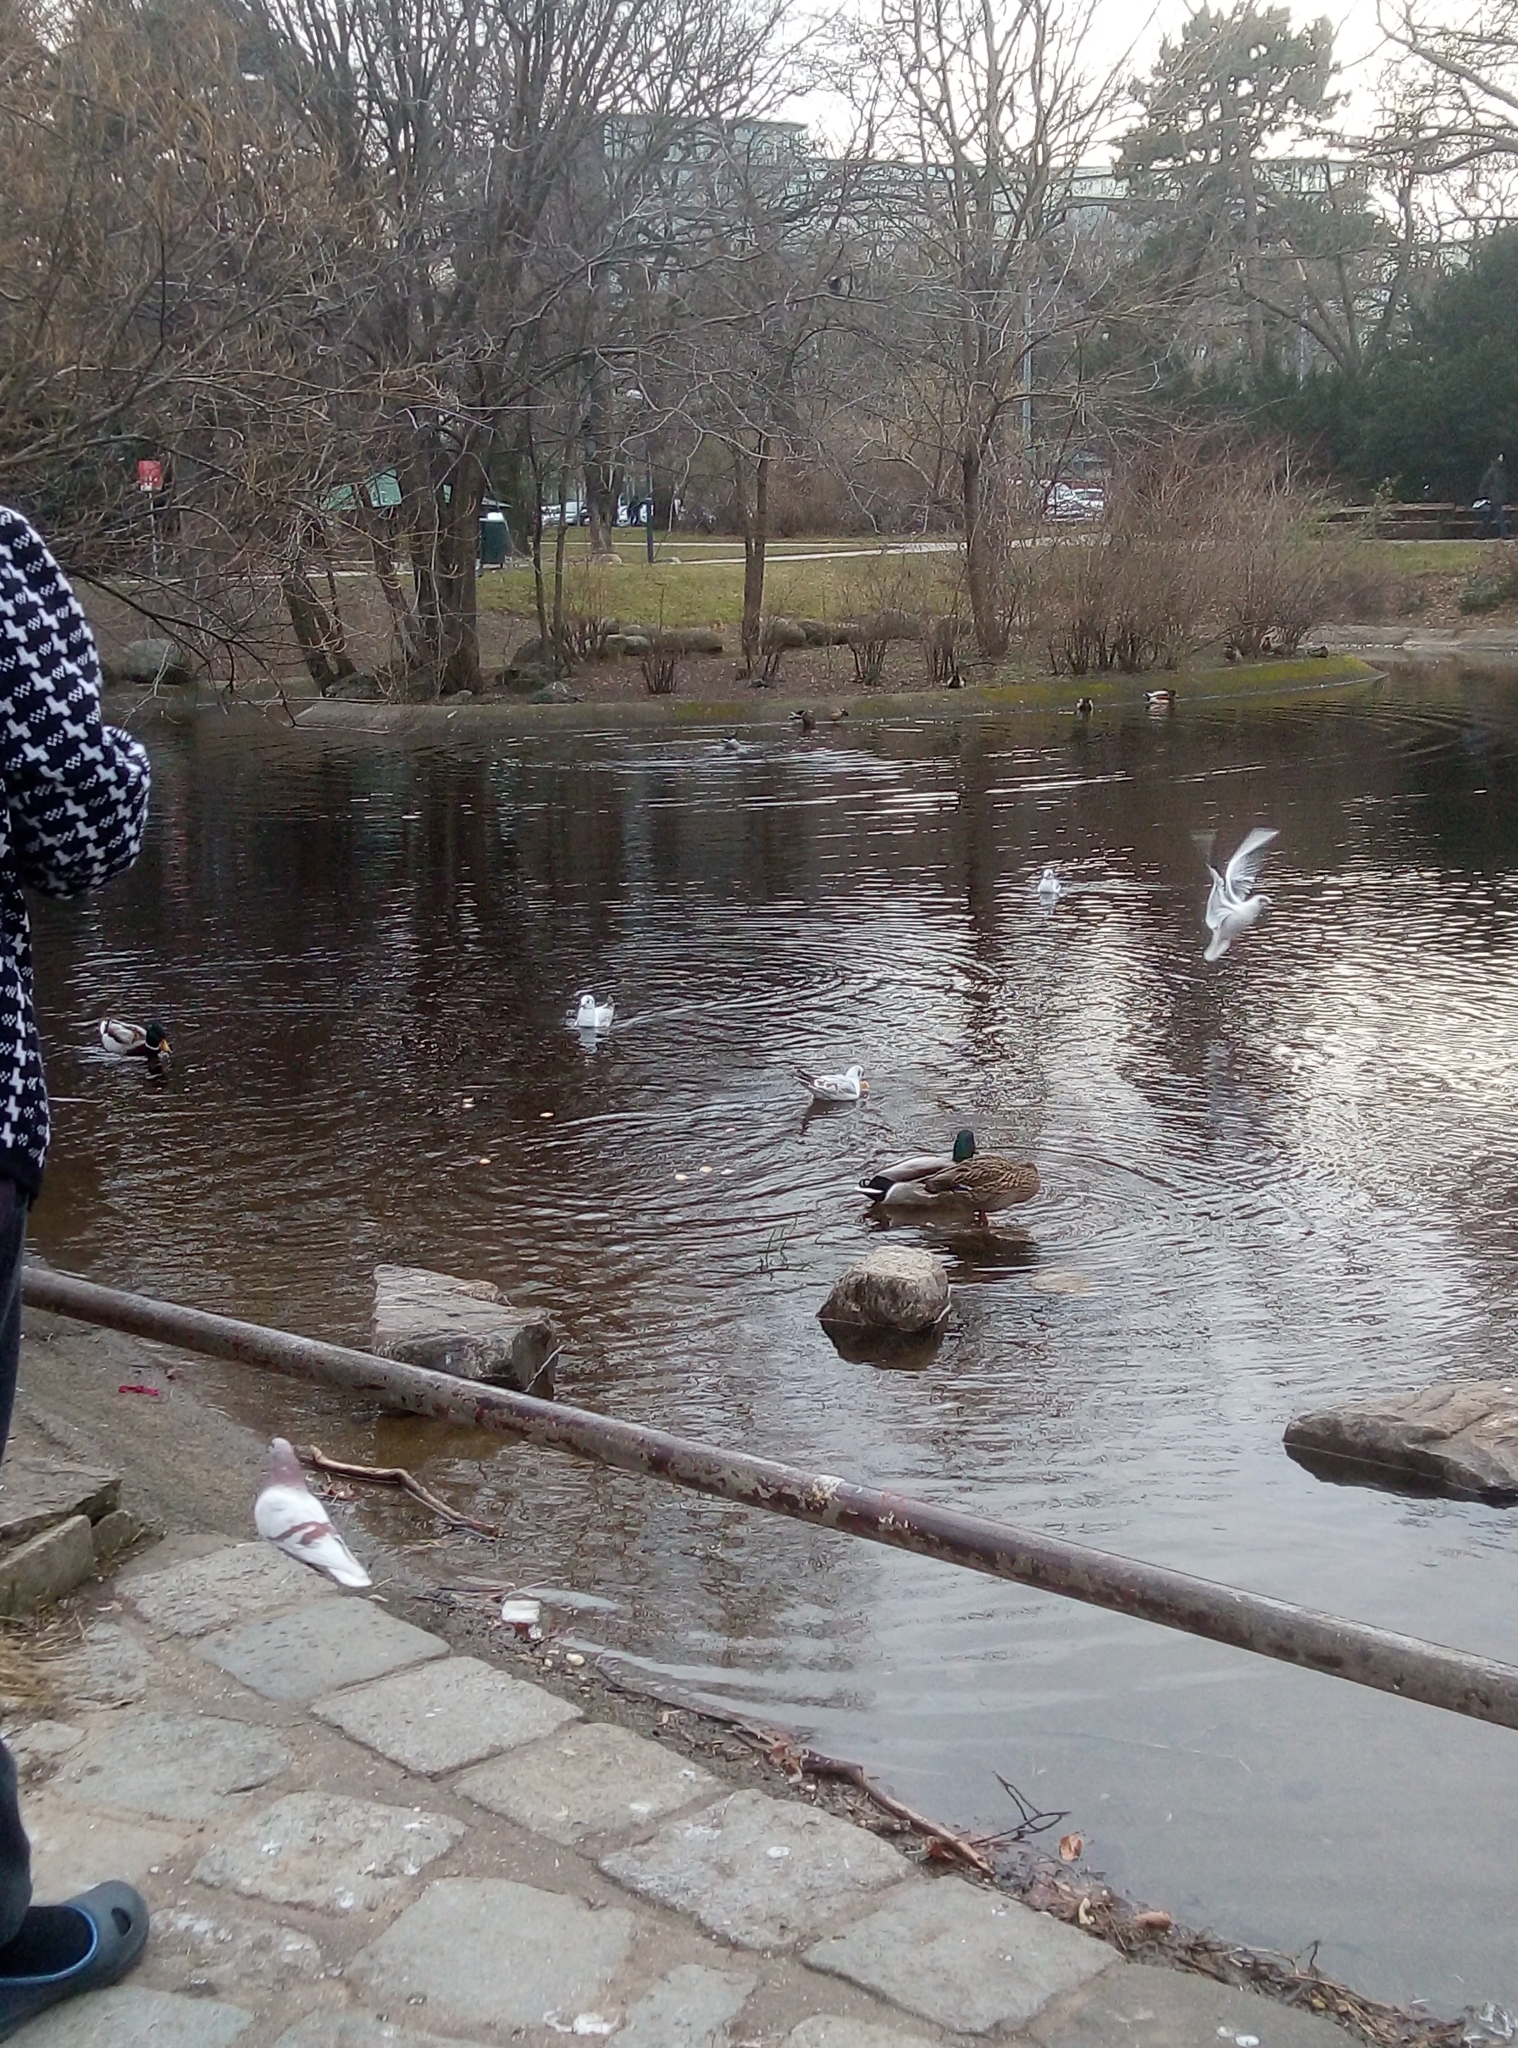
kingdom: Animalia
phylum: Chordata
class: Aves
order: Charadriiformes
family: Laridae
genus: Chroicocephalus
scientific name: Chroicocephalus ridibundus
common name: Black-headed gull
